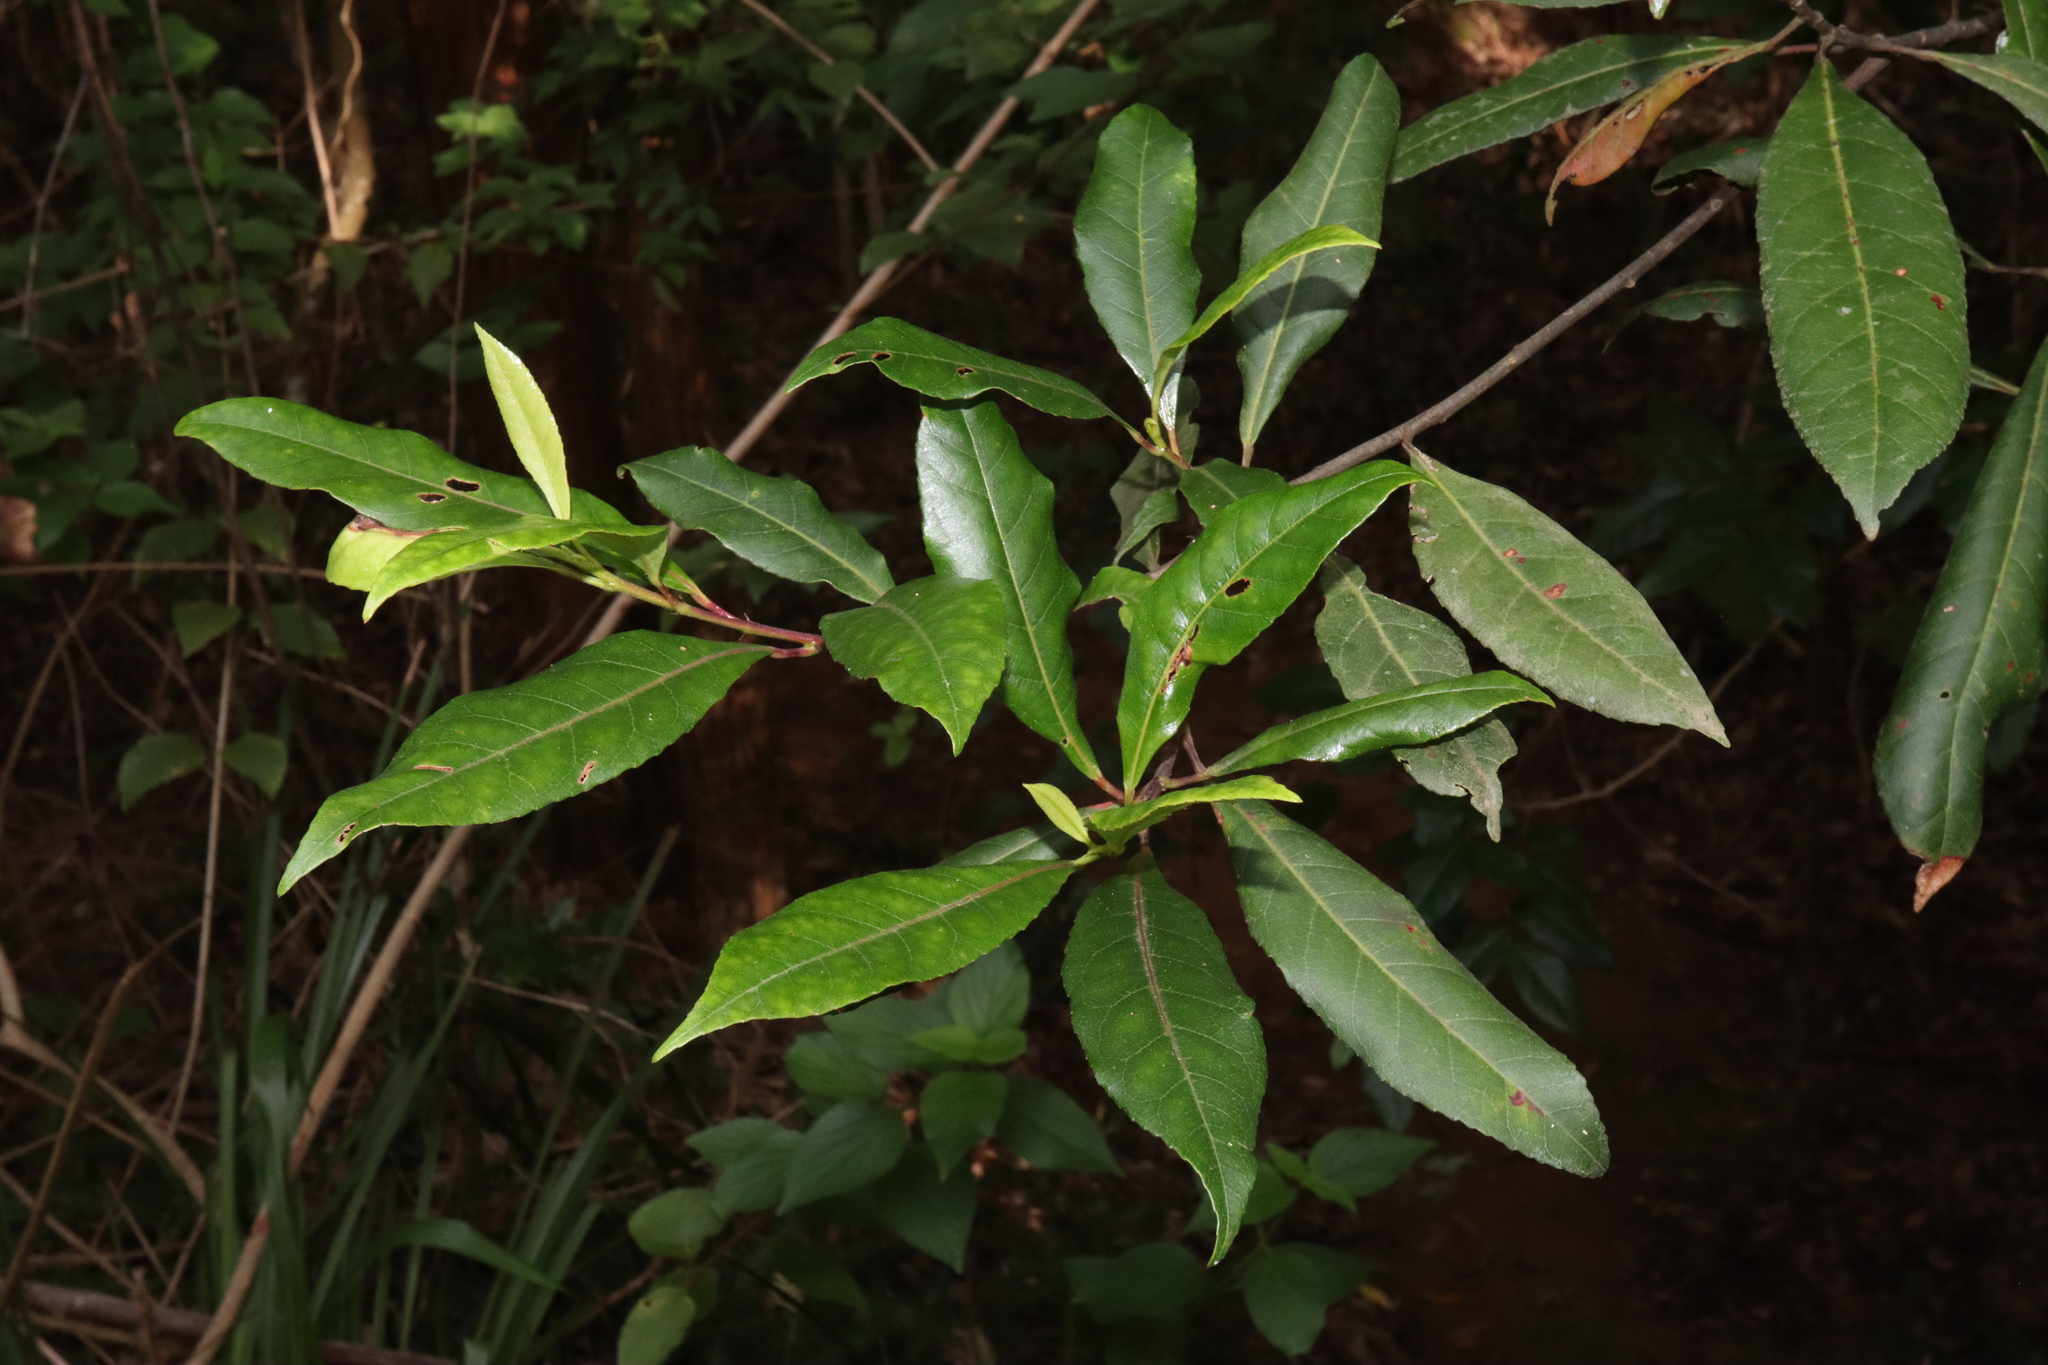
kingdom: Plantae
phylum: Tracheophyta
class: Magnoliopsida
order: Oxalidales
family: Elaeocarpaceae
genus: Elaeocarpus
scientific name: Elaeocarpus reticulatus
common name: Ash quandong
